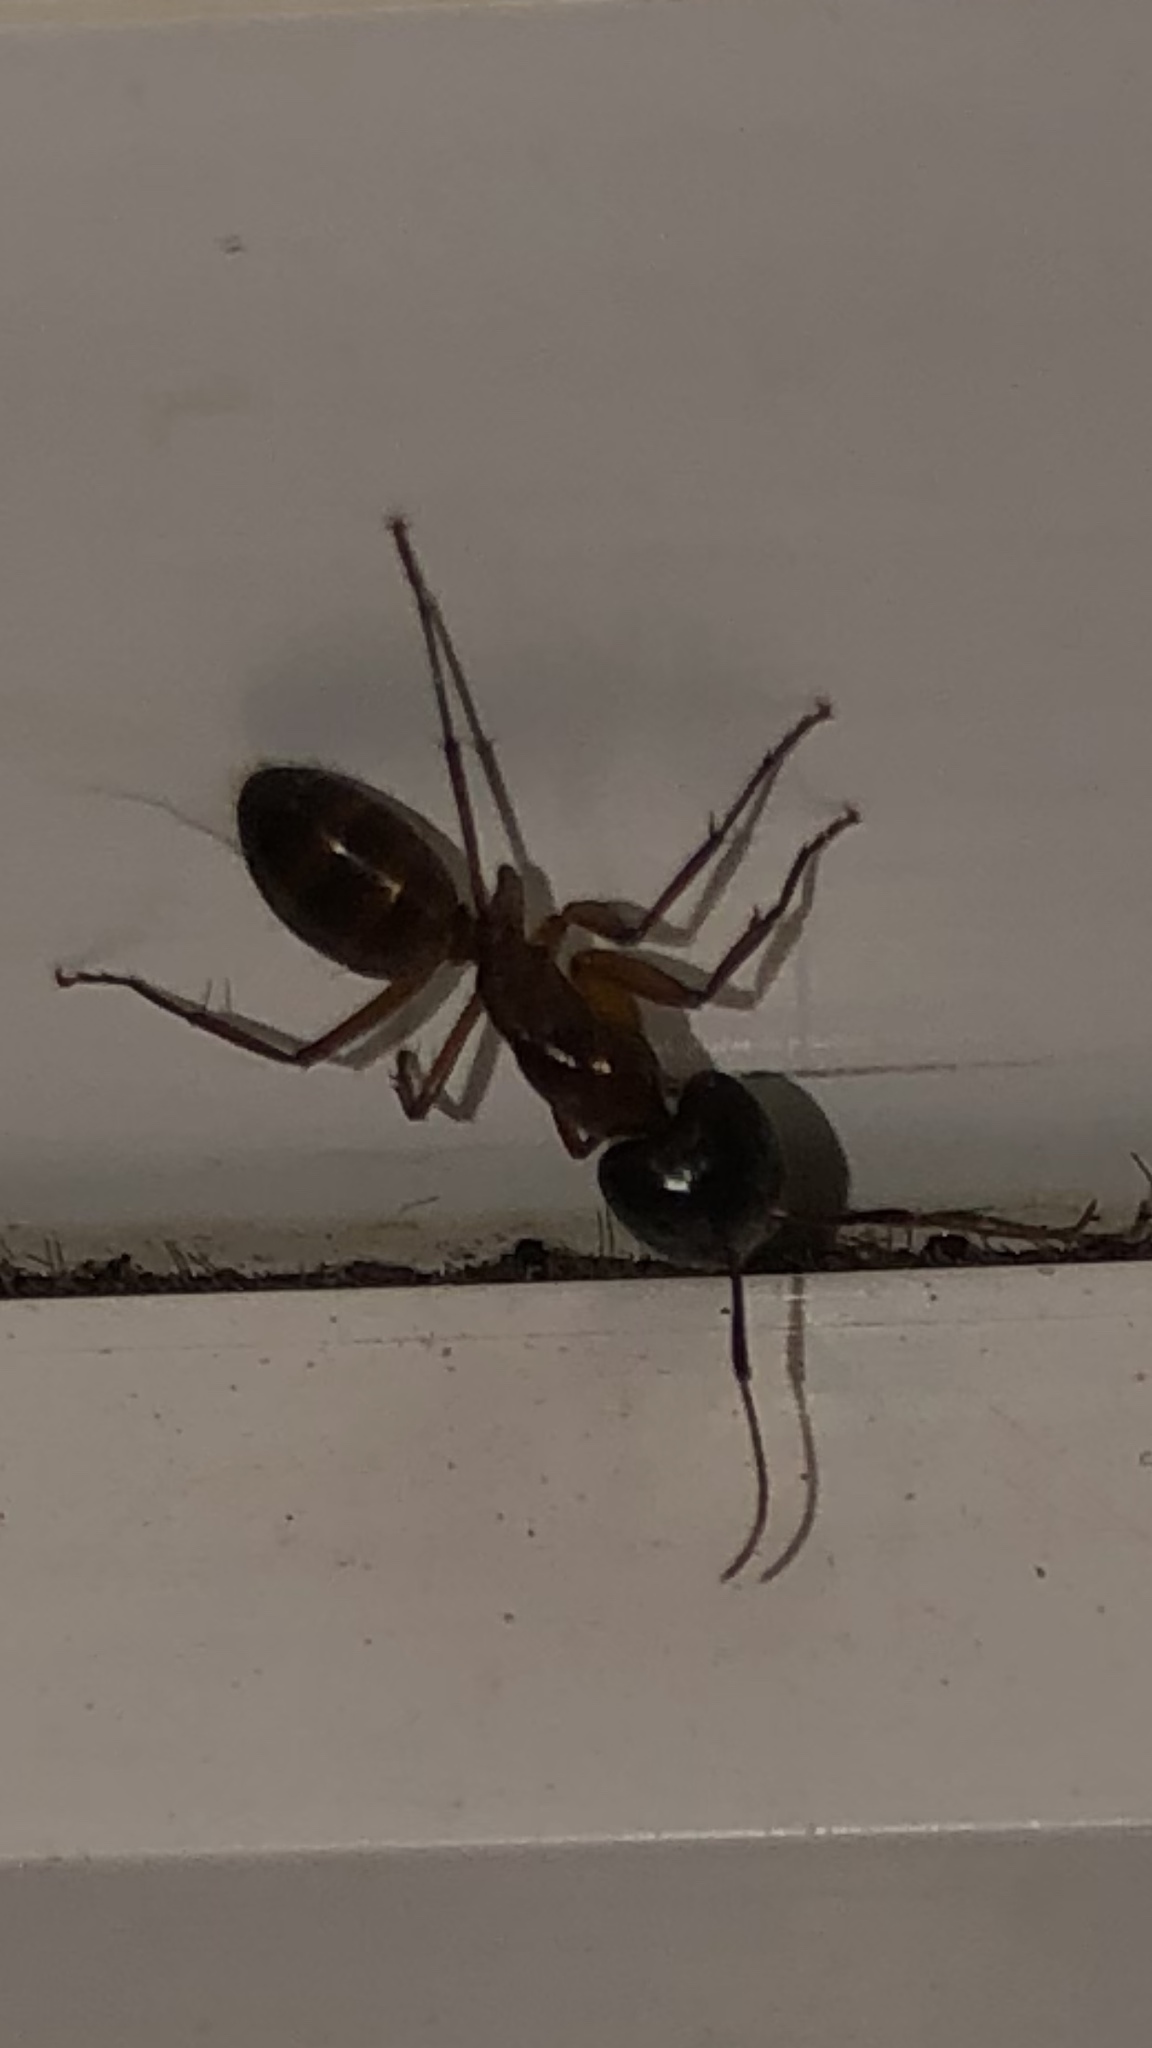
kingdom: Animalia
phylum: Arthropoda
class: Insecta
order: Hymenoptera
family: Formicidae
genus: Camponotus
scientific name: Camponotus americanus
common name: American carpenter ant
